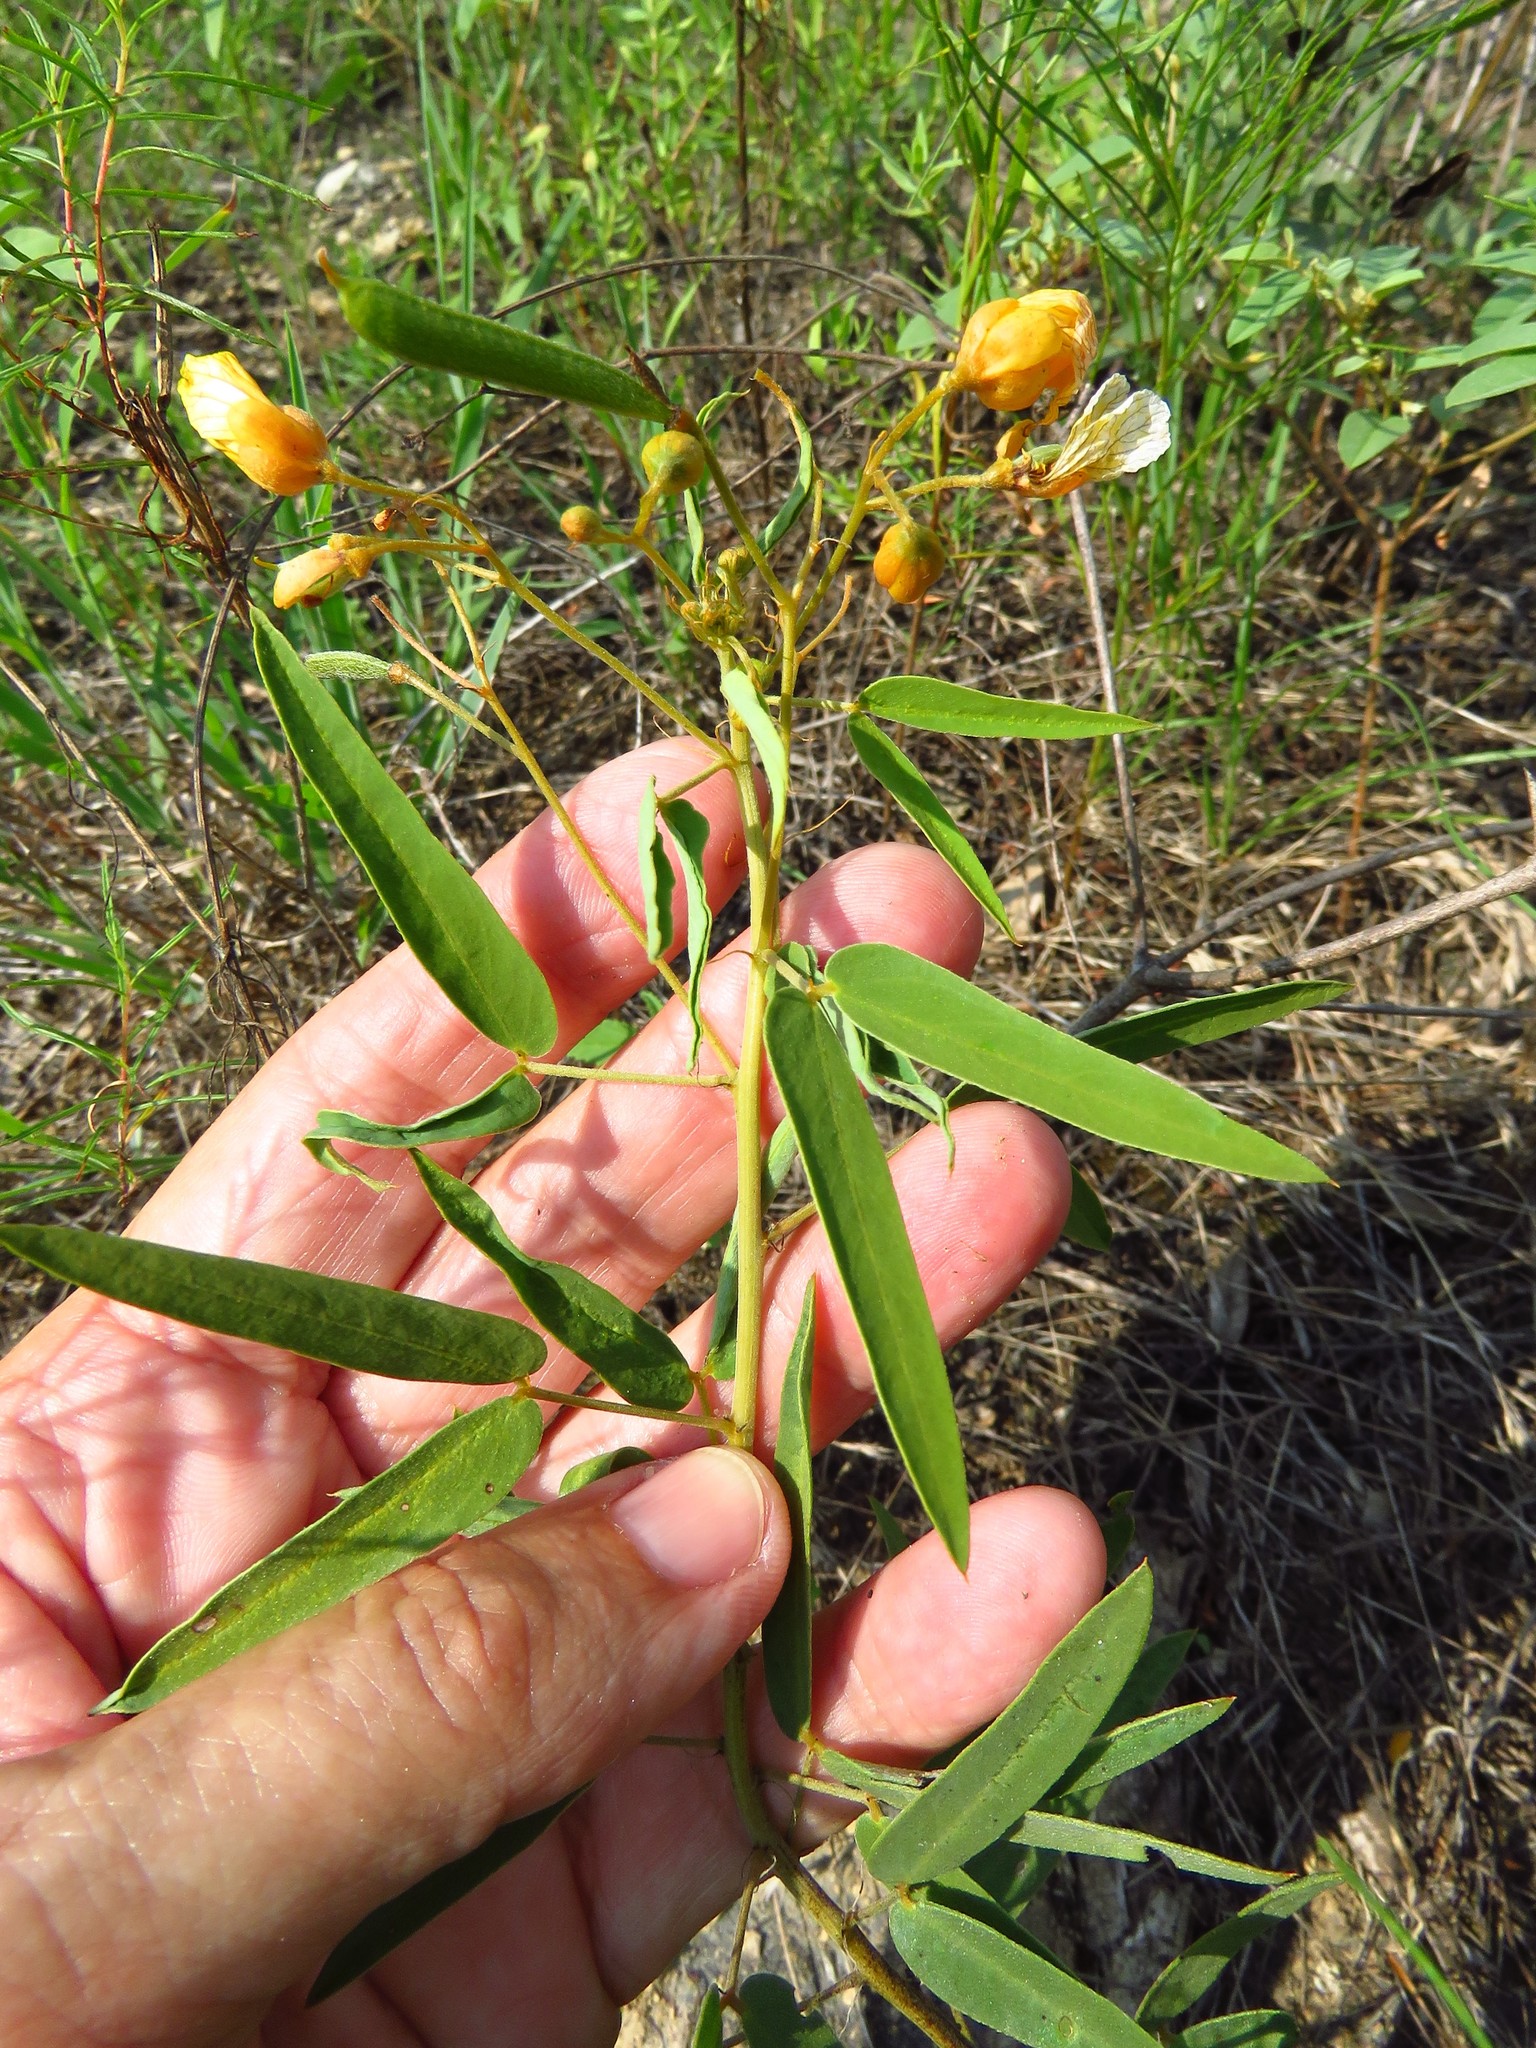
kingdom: Plantae
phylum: Tracheophyta
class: Magnoliopsida
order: Fabales
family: Fabaceae
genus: Senna
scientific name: Senna roemeriana
